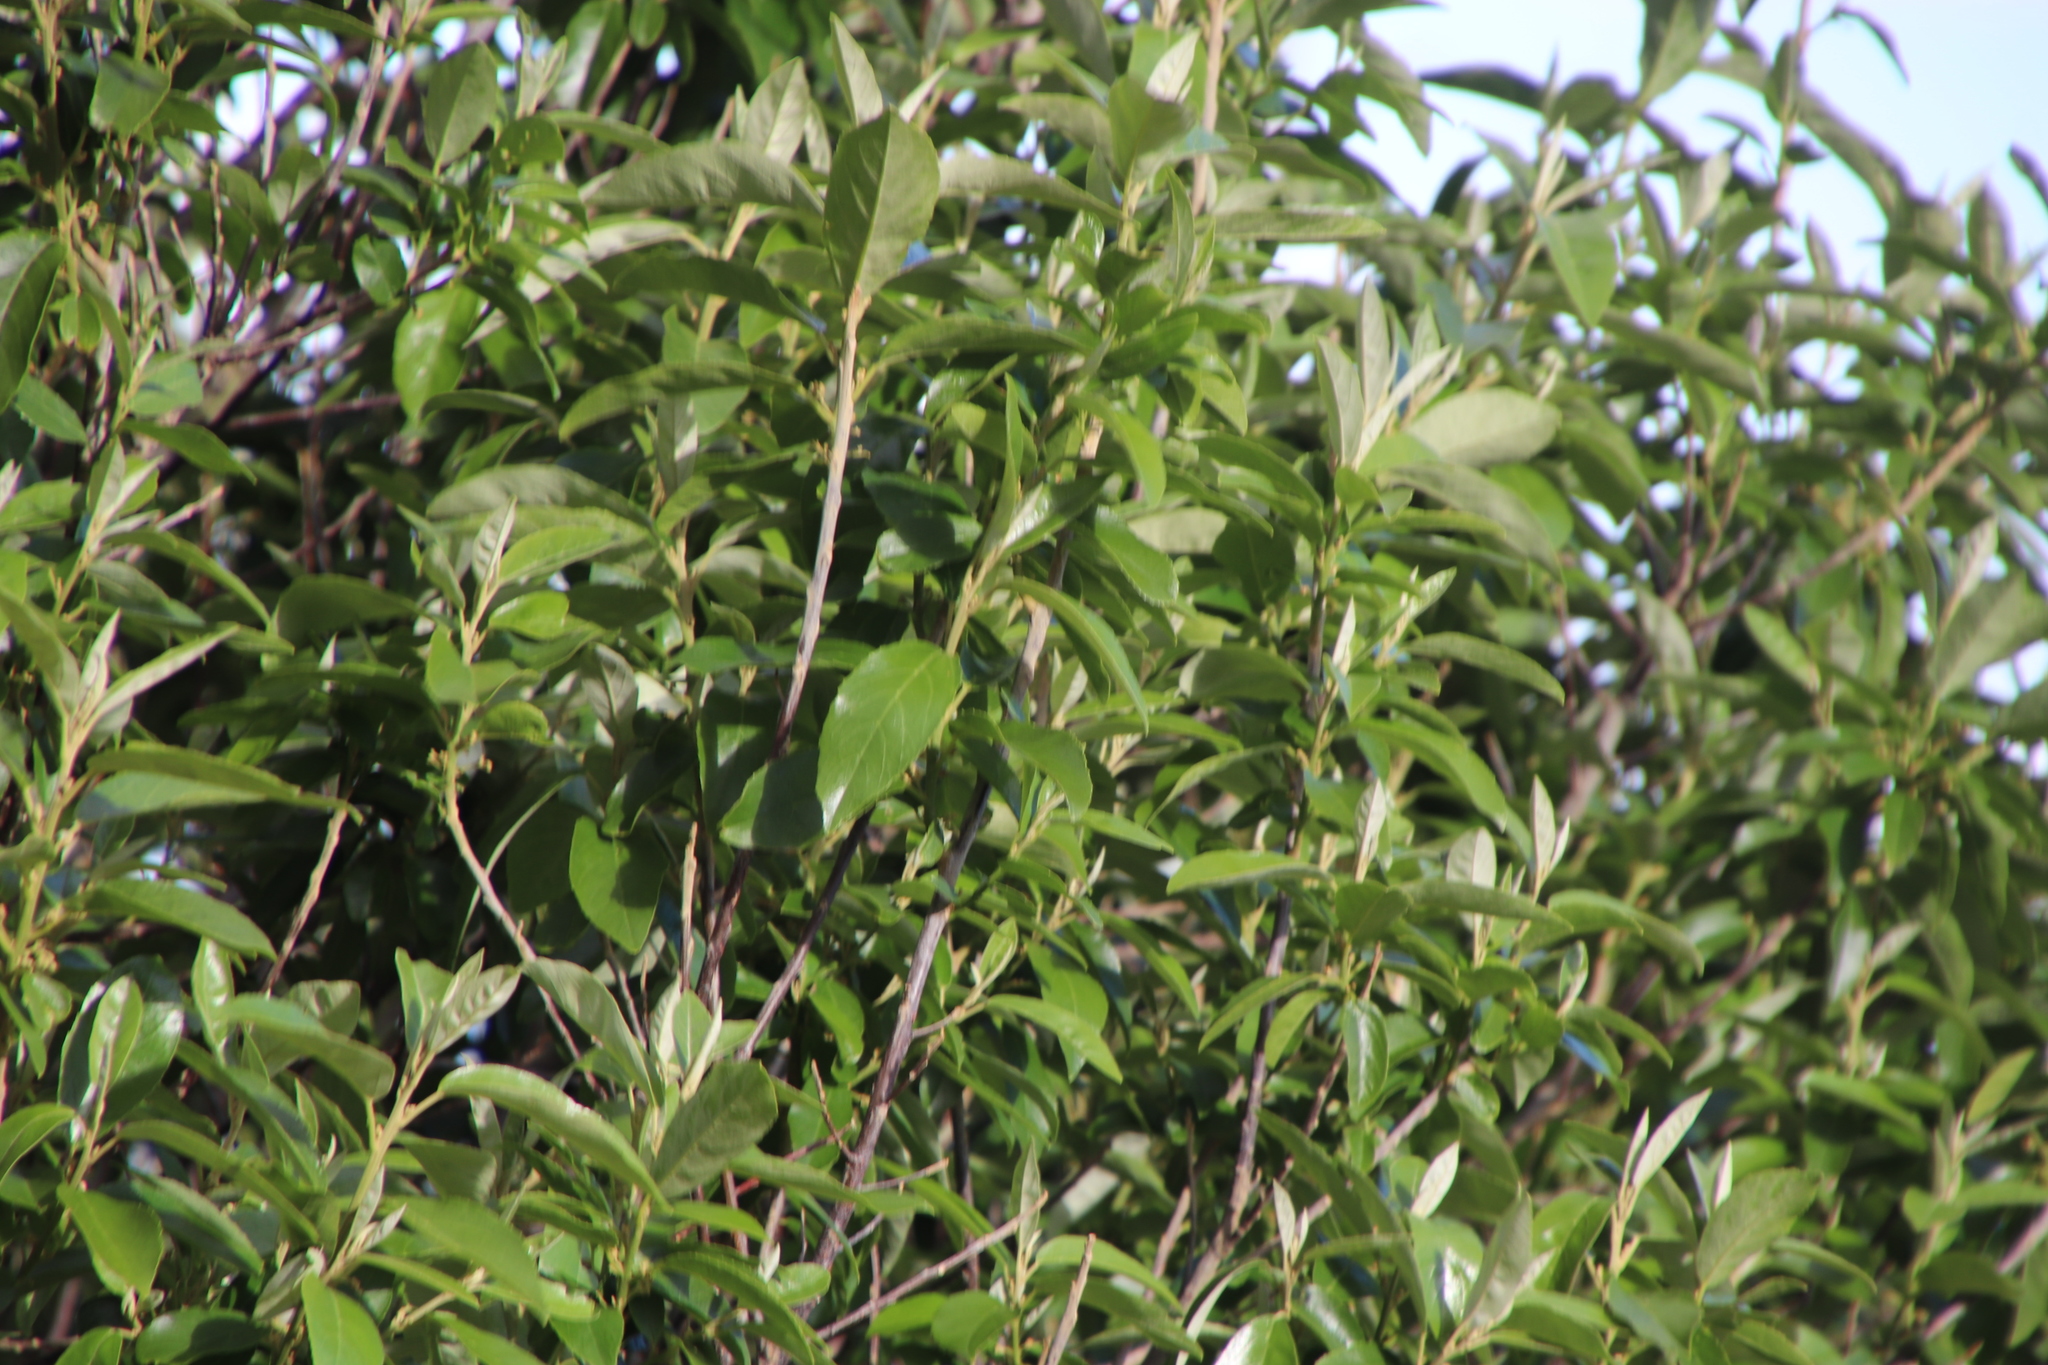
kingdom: Plantae
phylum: Tracheophyta
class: Magnoliopsida
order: Malpighiales
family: Achariaceae
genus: Kiggelaria
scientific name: Kiggelaria africana
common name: Wild peach
